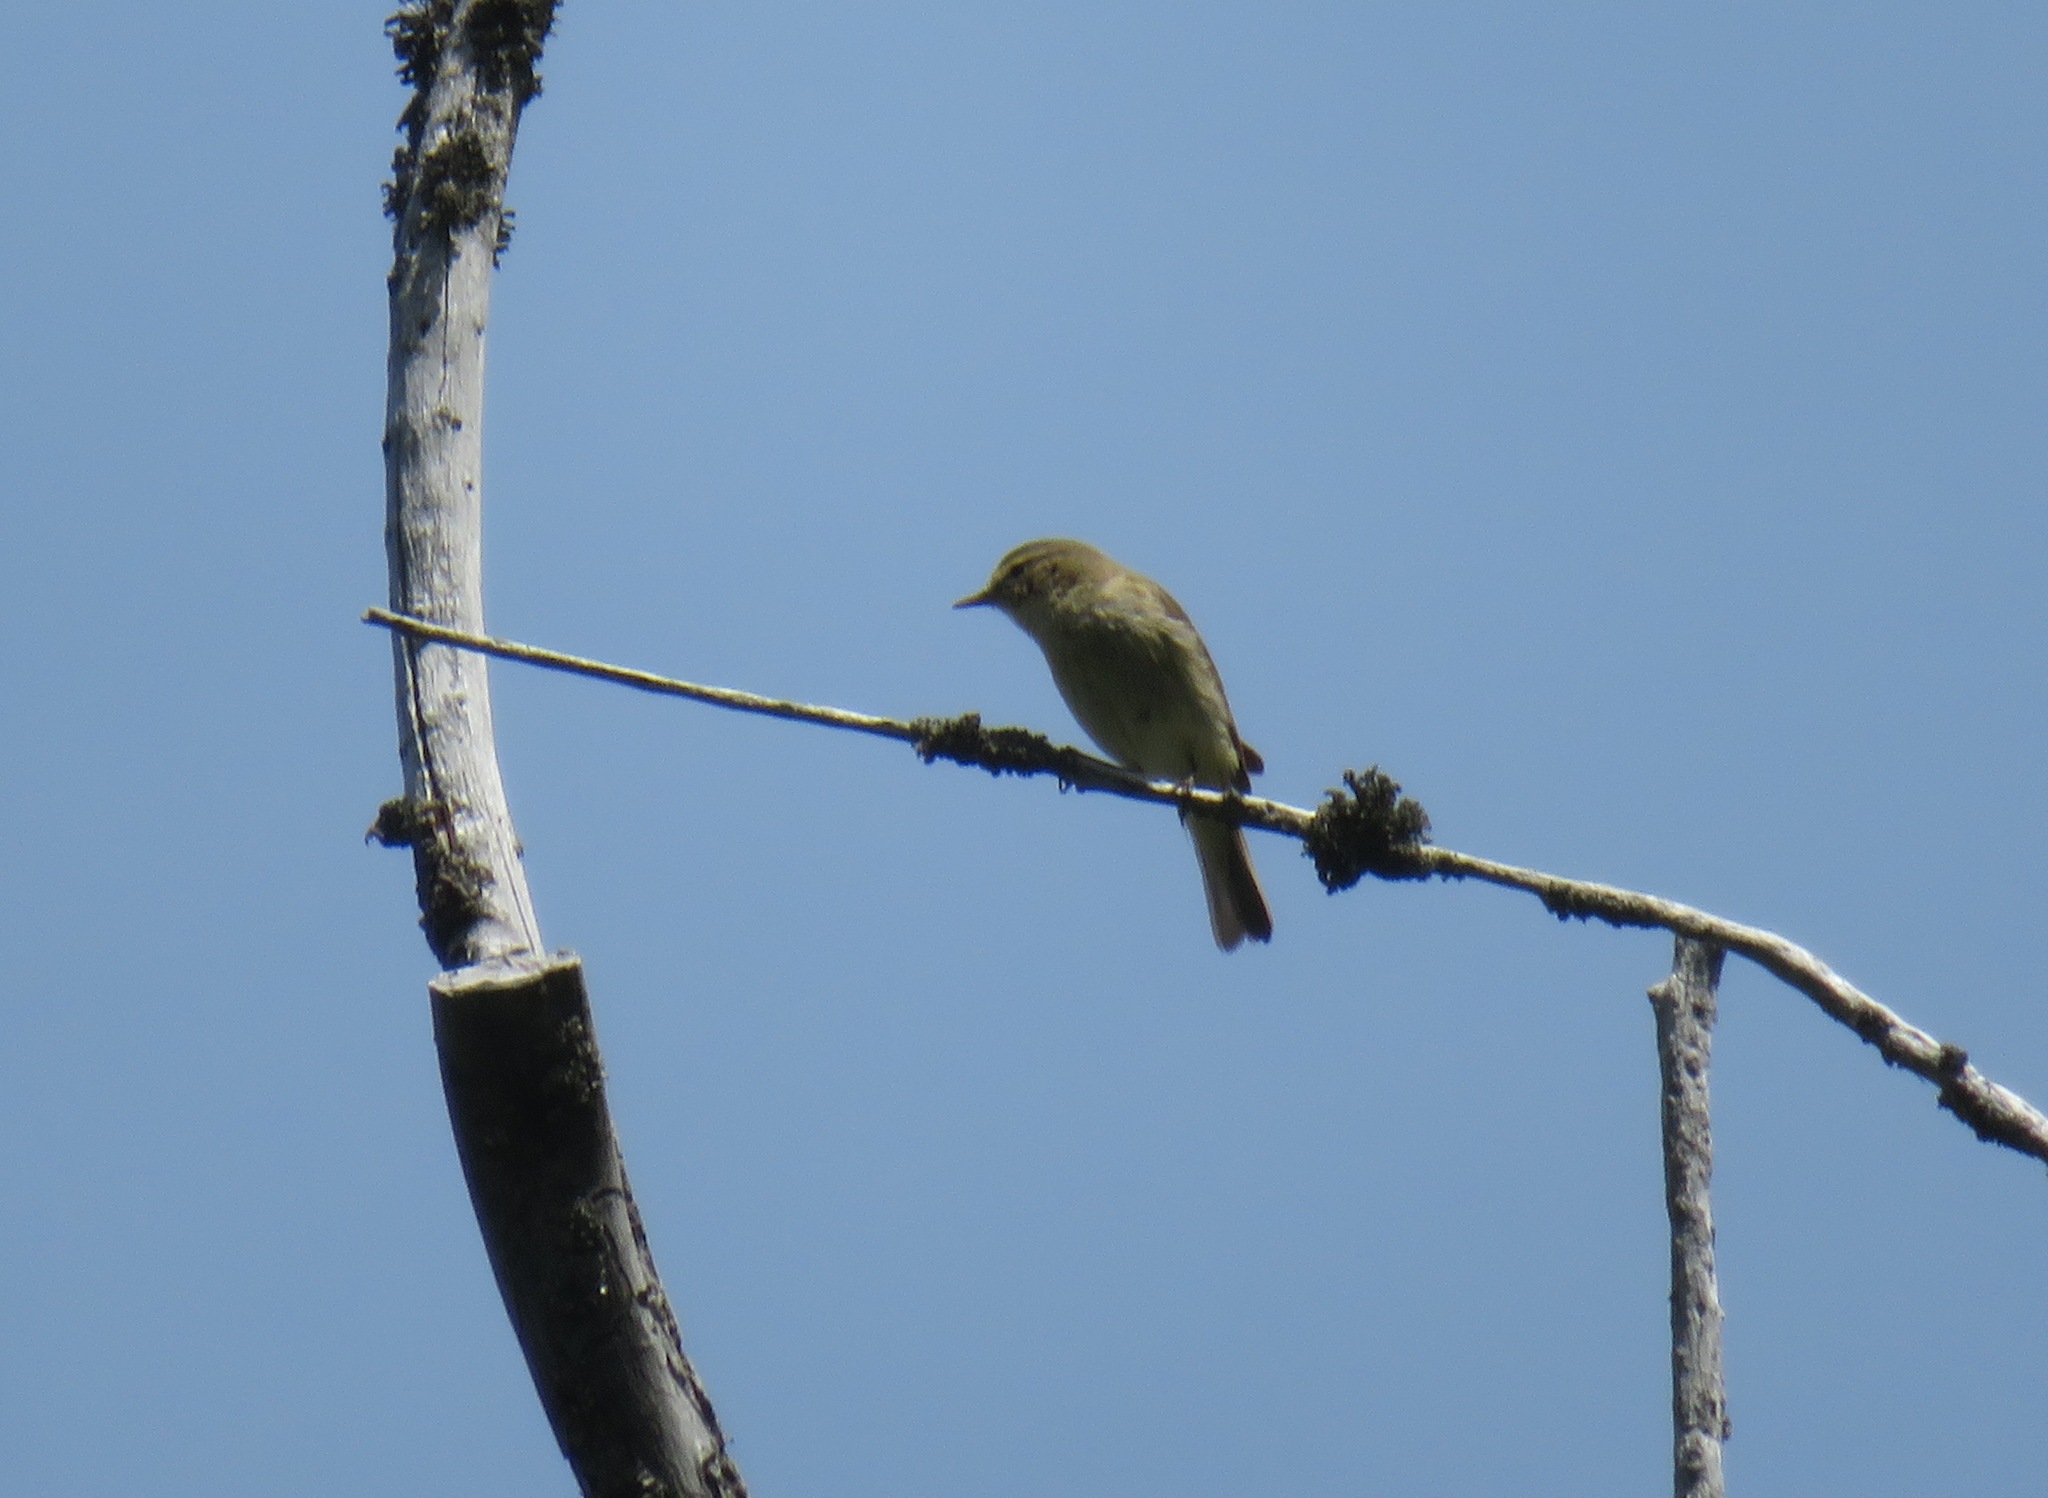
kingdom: Animalia
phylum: Chordata
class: Aves
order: Passeriformes
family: Phylloscopidae
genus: Phylloscopus
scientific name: Phylloscopus collybita
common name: Common chiffchaff
